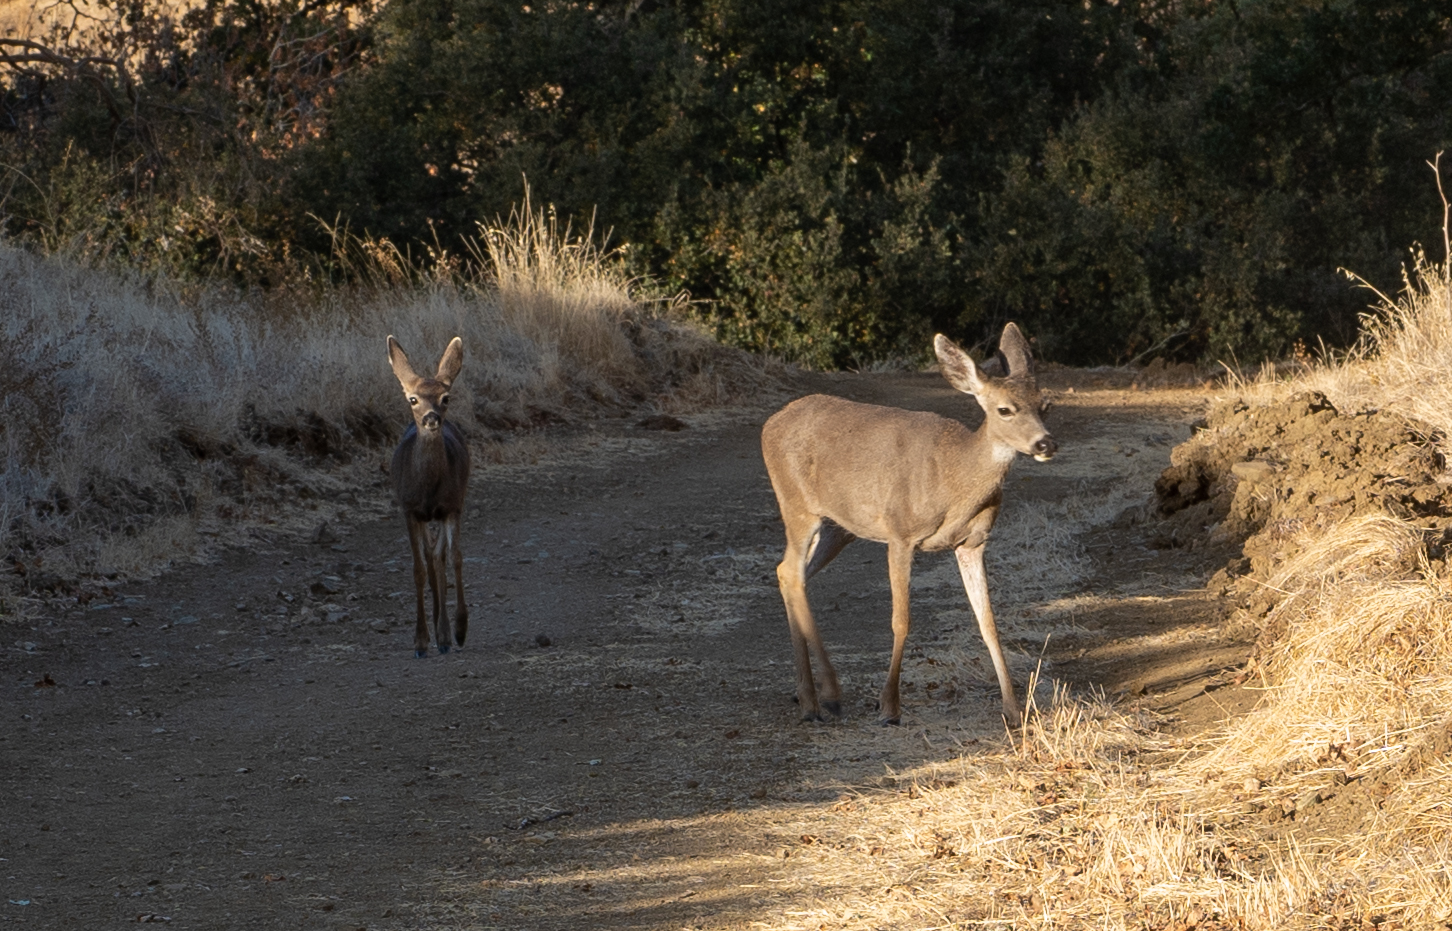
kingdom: Animalia
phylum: Chordata
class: Mammalia
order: Artiodactyla
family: Cervidae
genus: Odocoileus
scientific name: Odocoileus hemionus
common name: Mule deer
